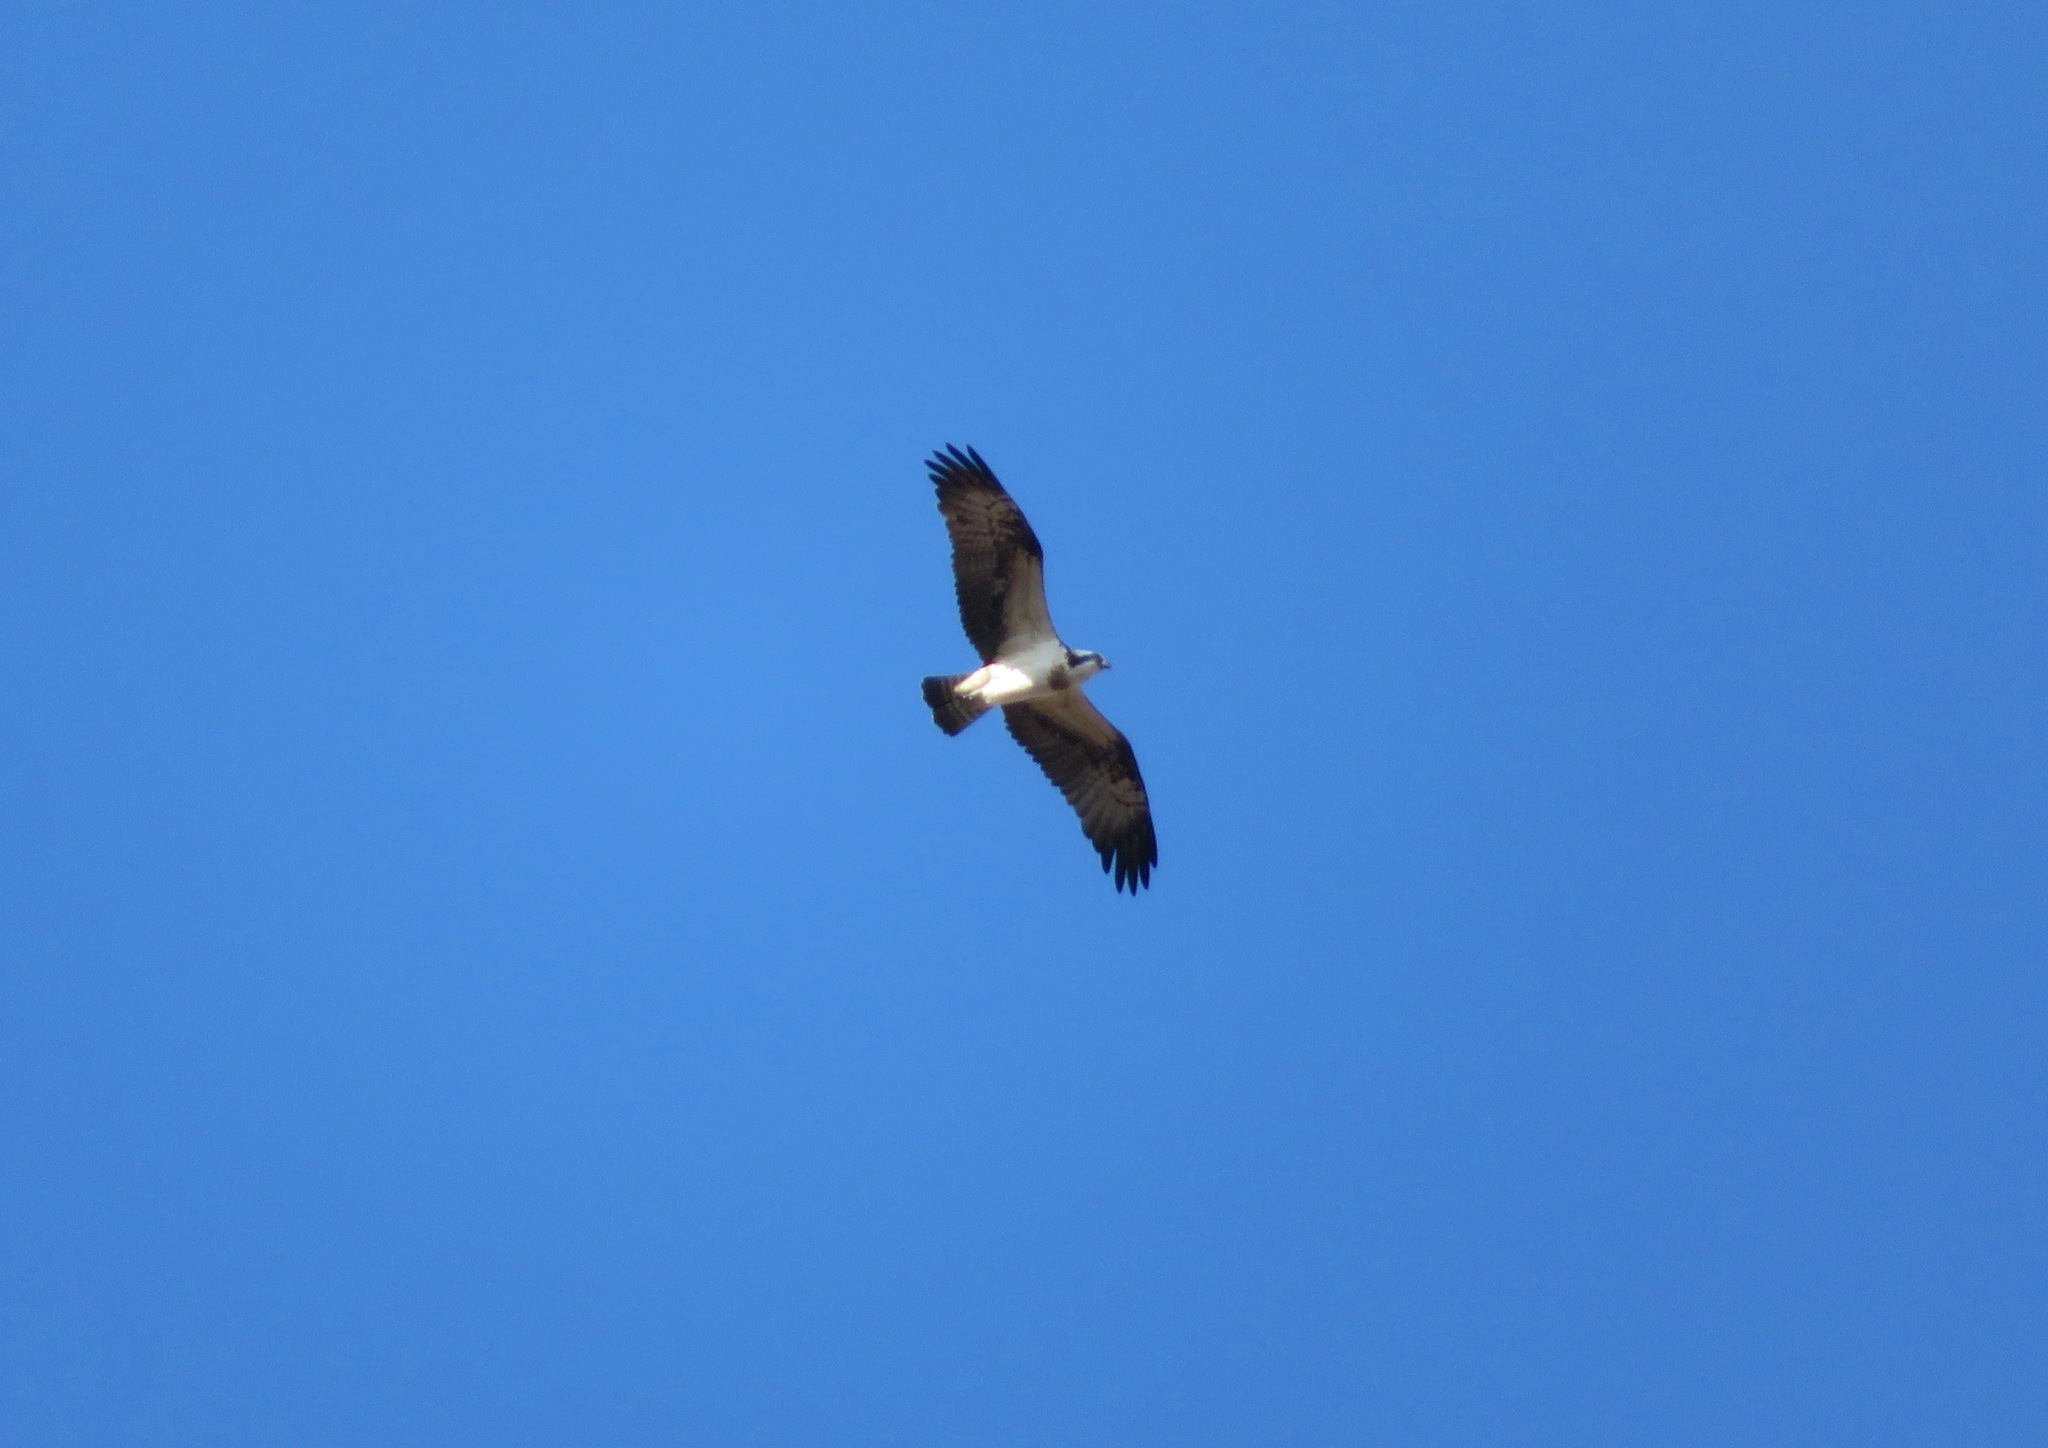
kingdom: Animalia
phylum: Chordata
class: Aves
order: Accipitriformes
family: Pandionidae
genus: Pandion
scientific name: Pandion haliaetus
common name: Osprey
